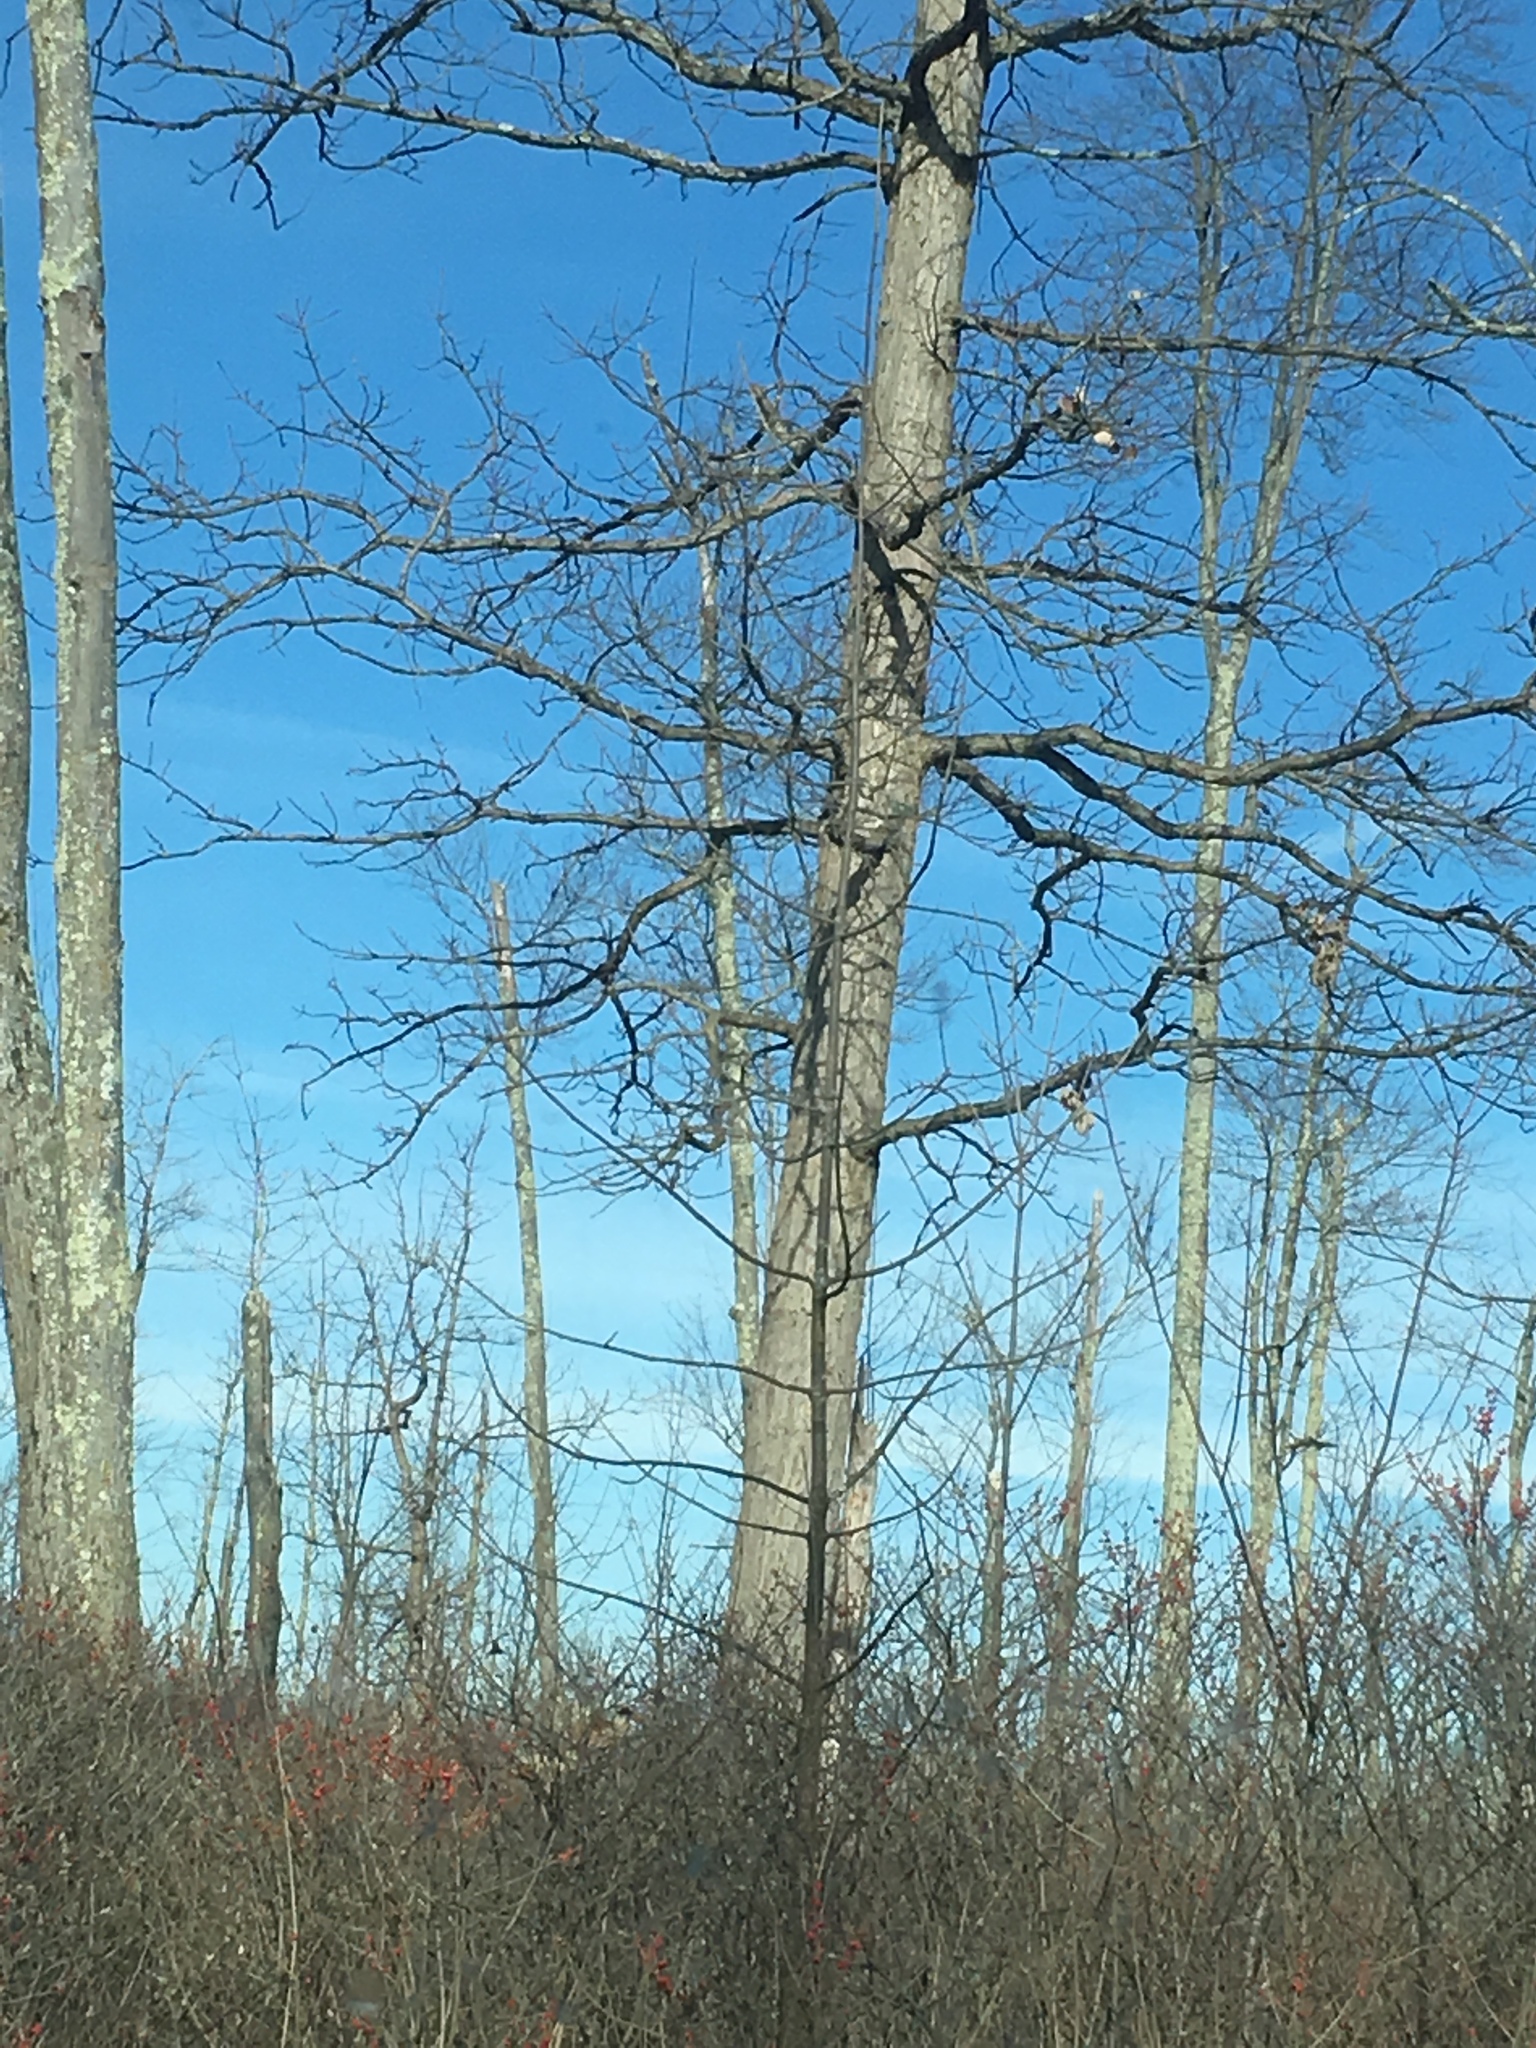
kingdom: Plantae
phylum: Tracheophyta
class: Magnoliopsida
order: Fagales
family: Fagaceae
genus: Quercus
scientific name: Quercus
